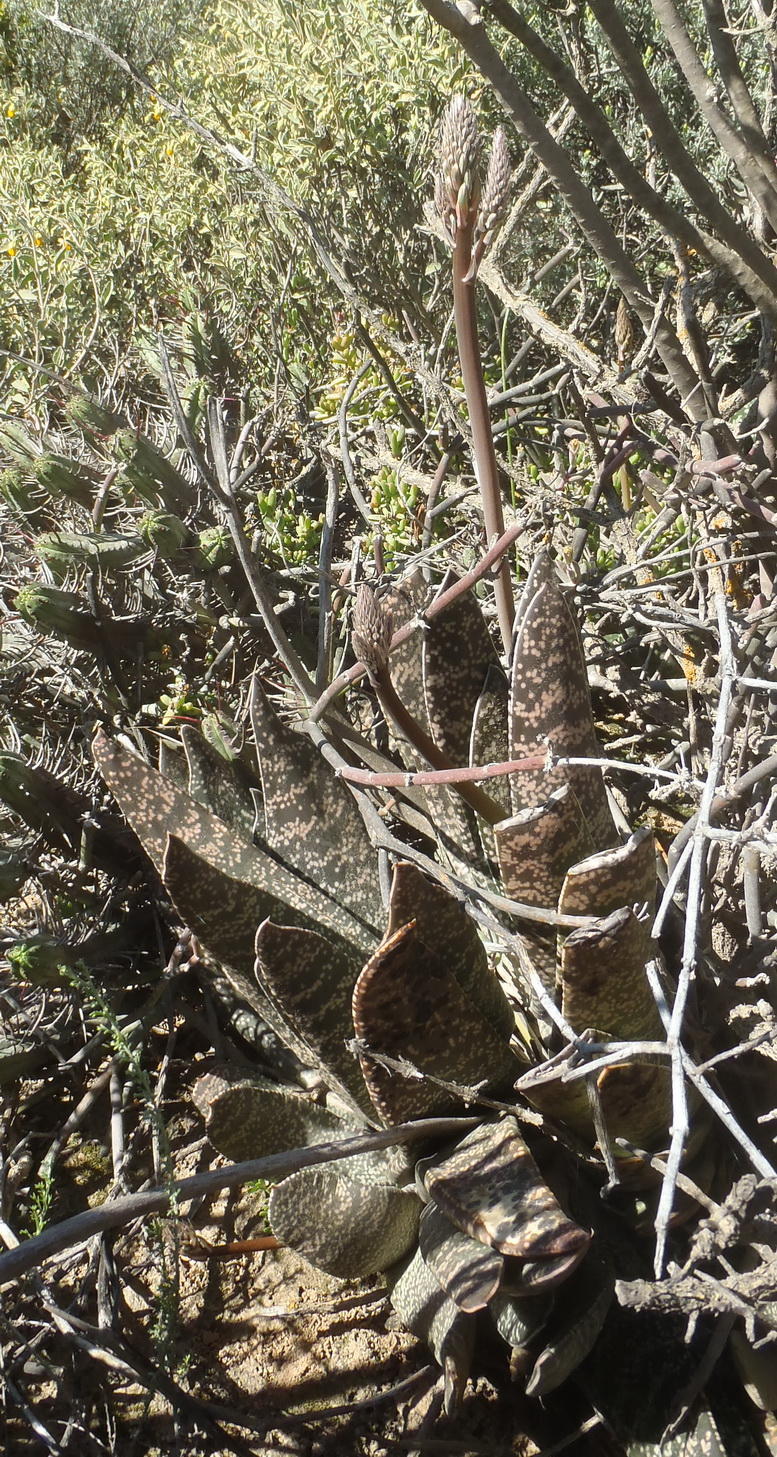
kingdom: Plantae
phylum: Tracheophyta
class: Liliopsida
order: Asparagales
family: Asphodelaceae
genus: Gasteria
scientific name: Gasteria brachyphylla
